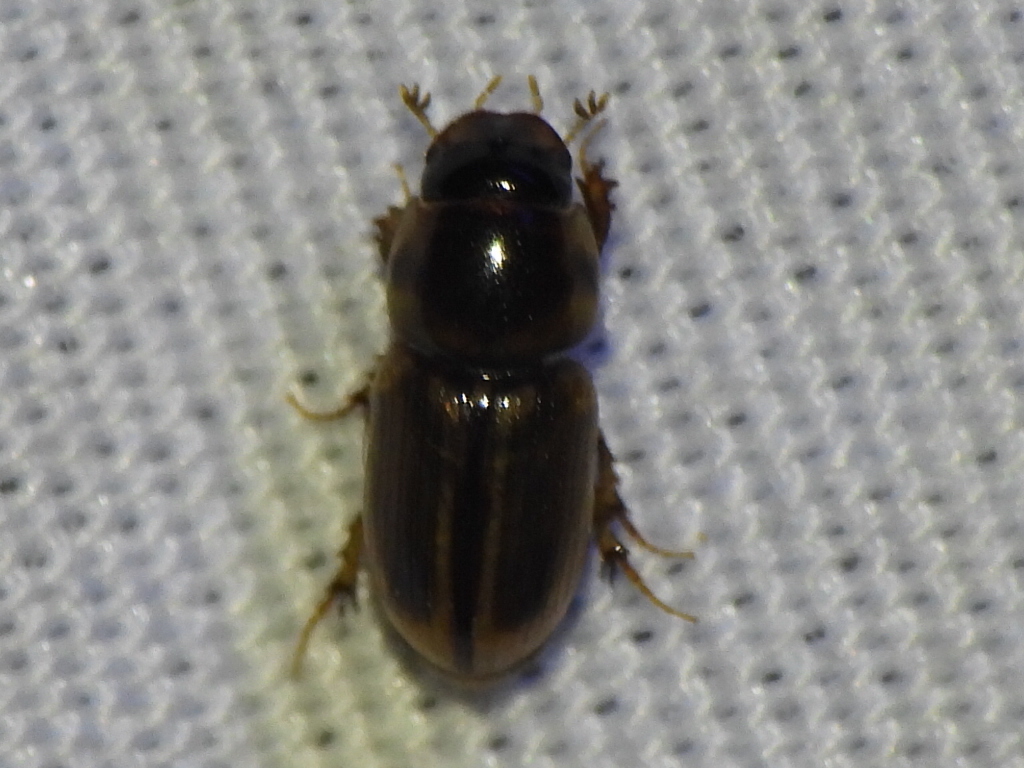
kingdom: Animalia
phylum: Arthropoda
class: Insecta
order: Coleoptera
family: Scarabaeidae
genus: Labarrus
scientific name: Labarrus lividus
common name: Scarab beetle
